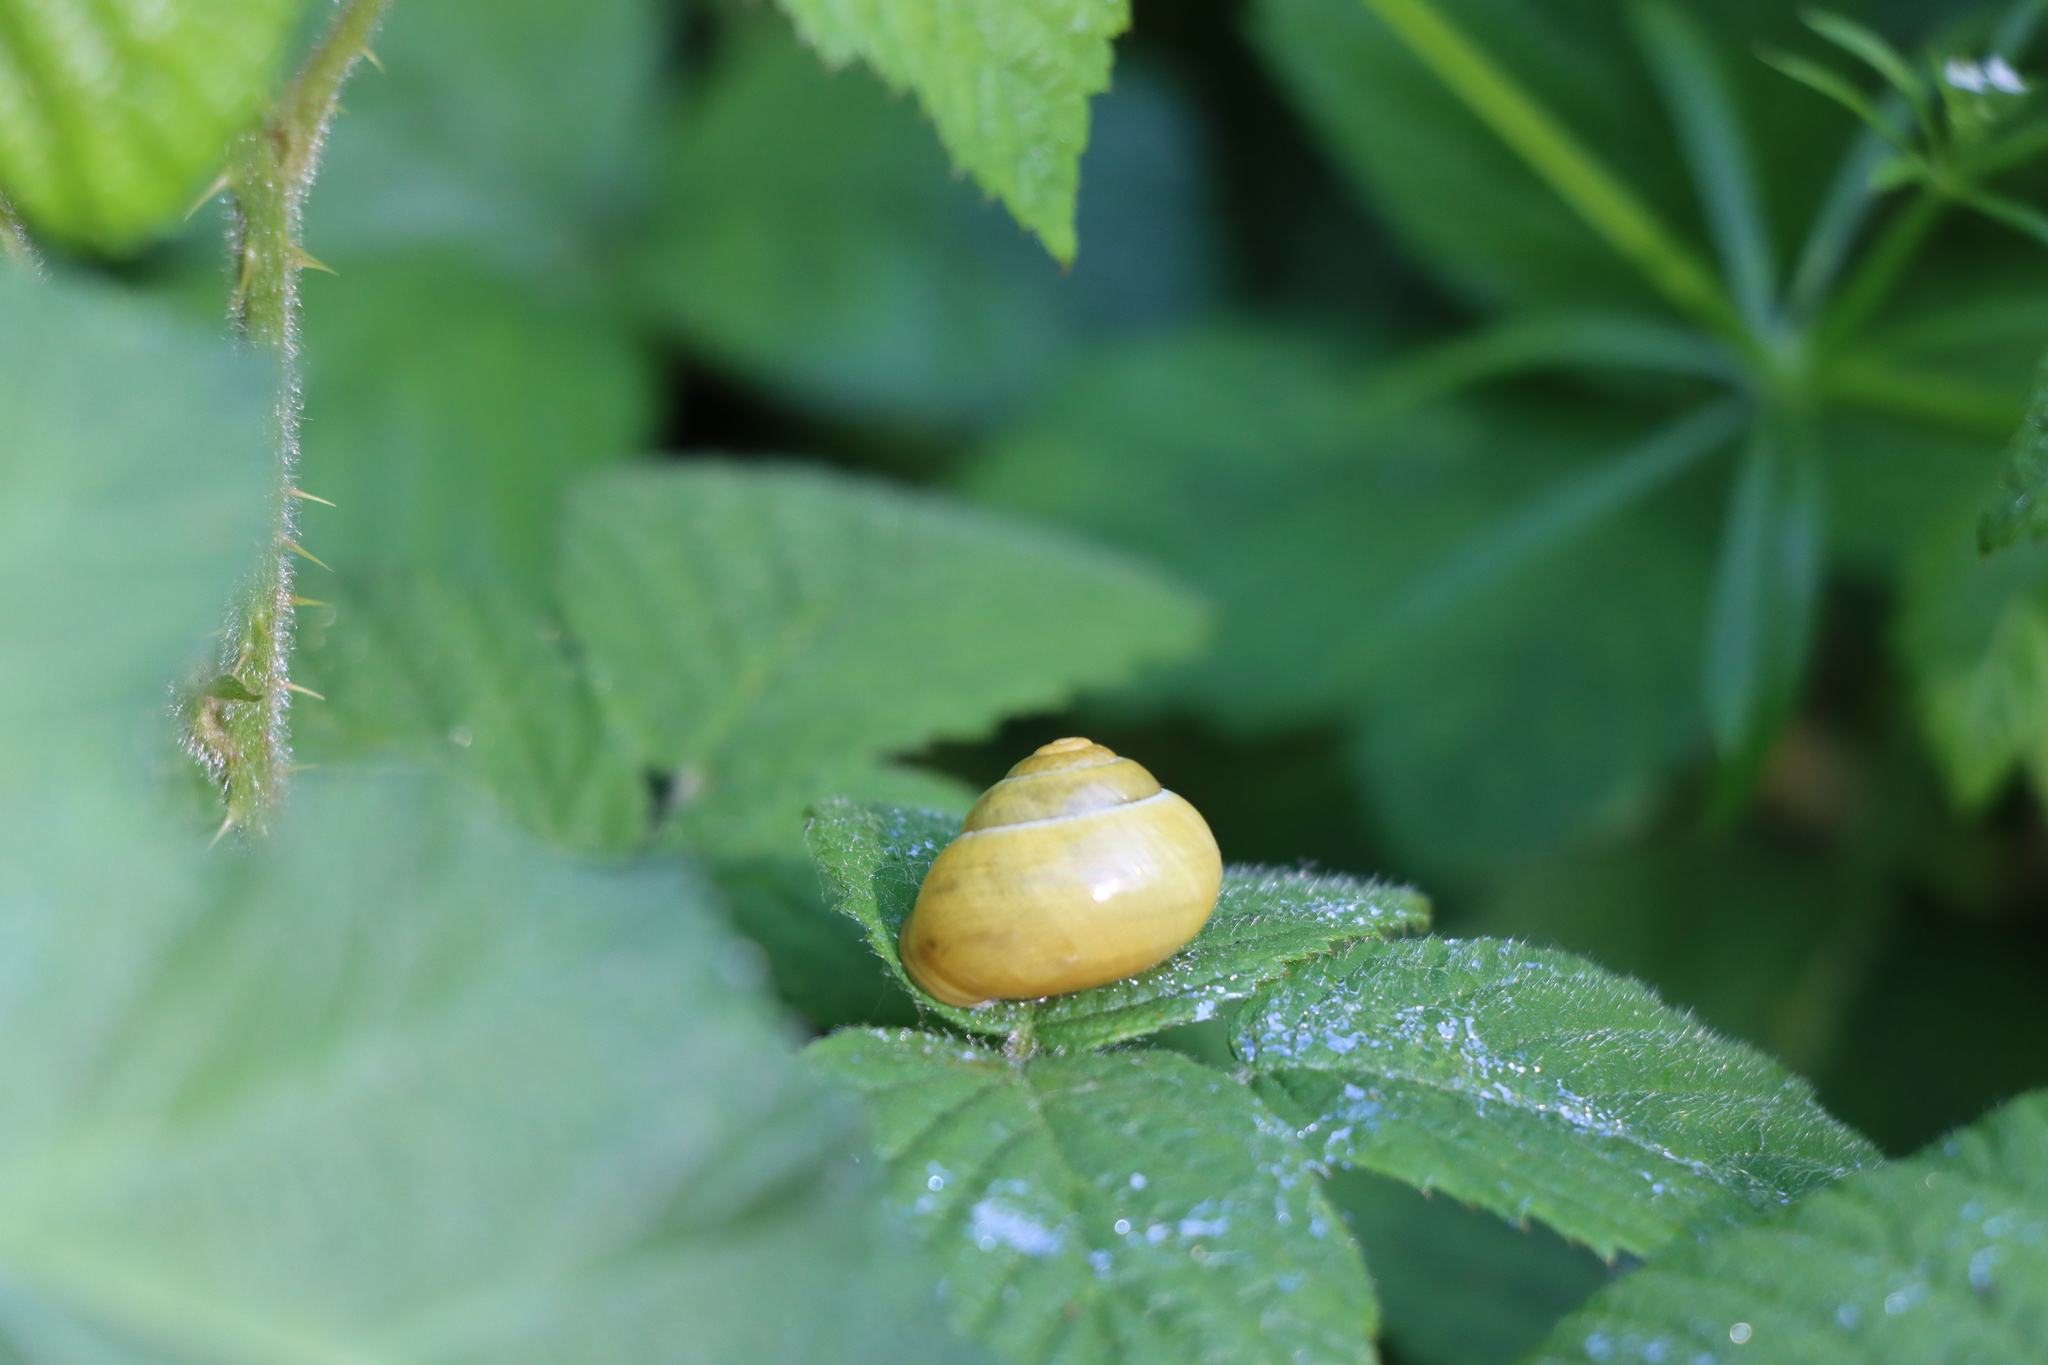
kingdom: Animalia
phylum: Mollusca
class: Gastropoda
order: Stylommatophora
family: Helicidae
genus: Cepaea
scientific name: Cepaea hortensis
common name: White-lip gardensnail
